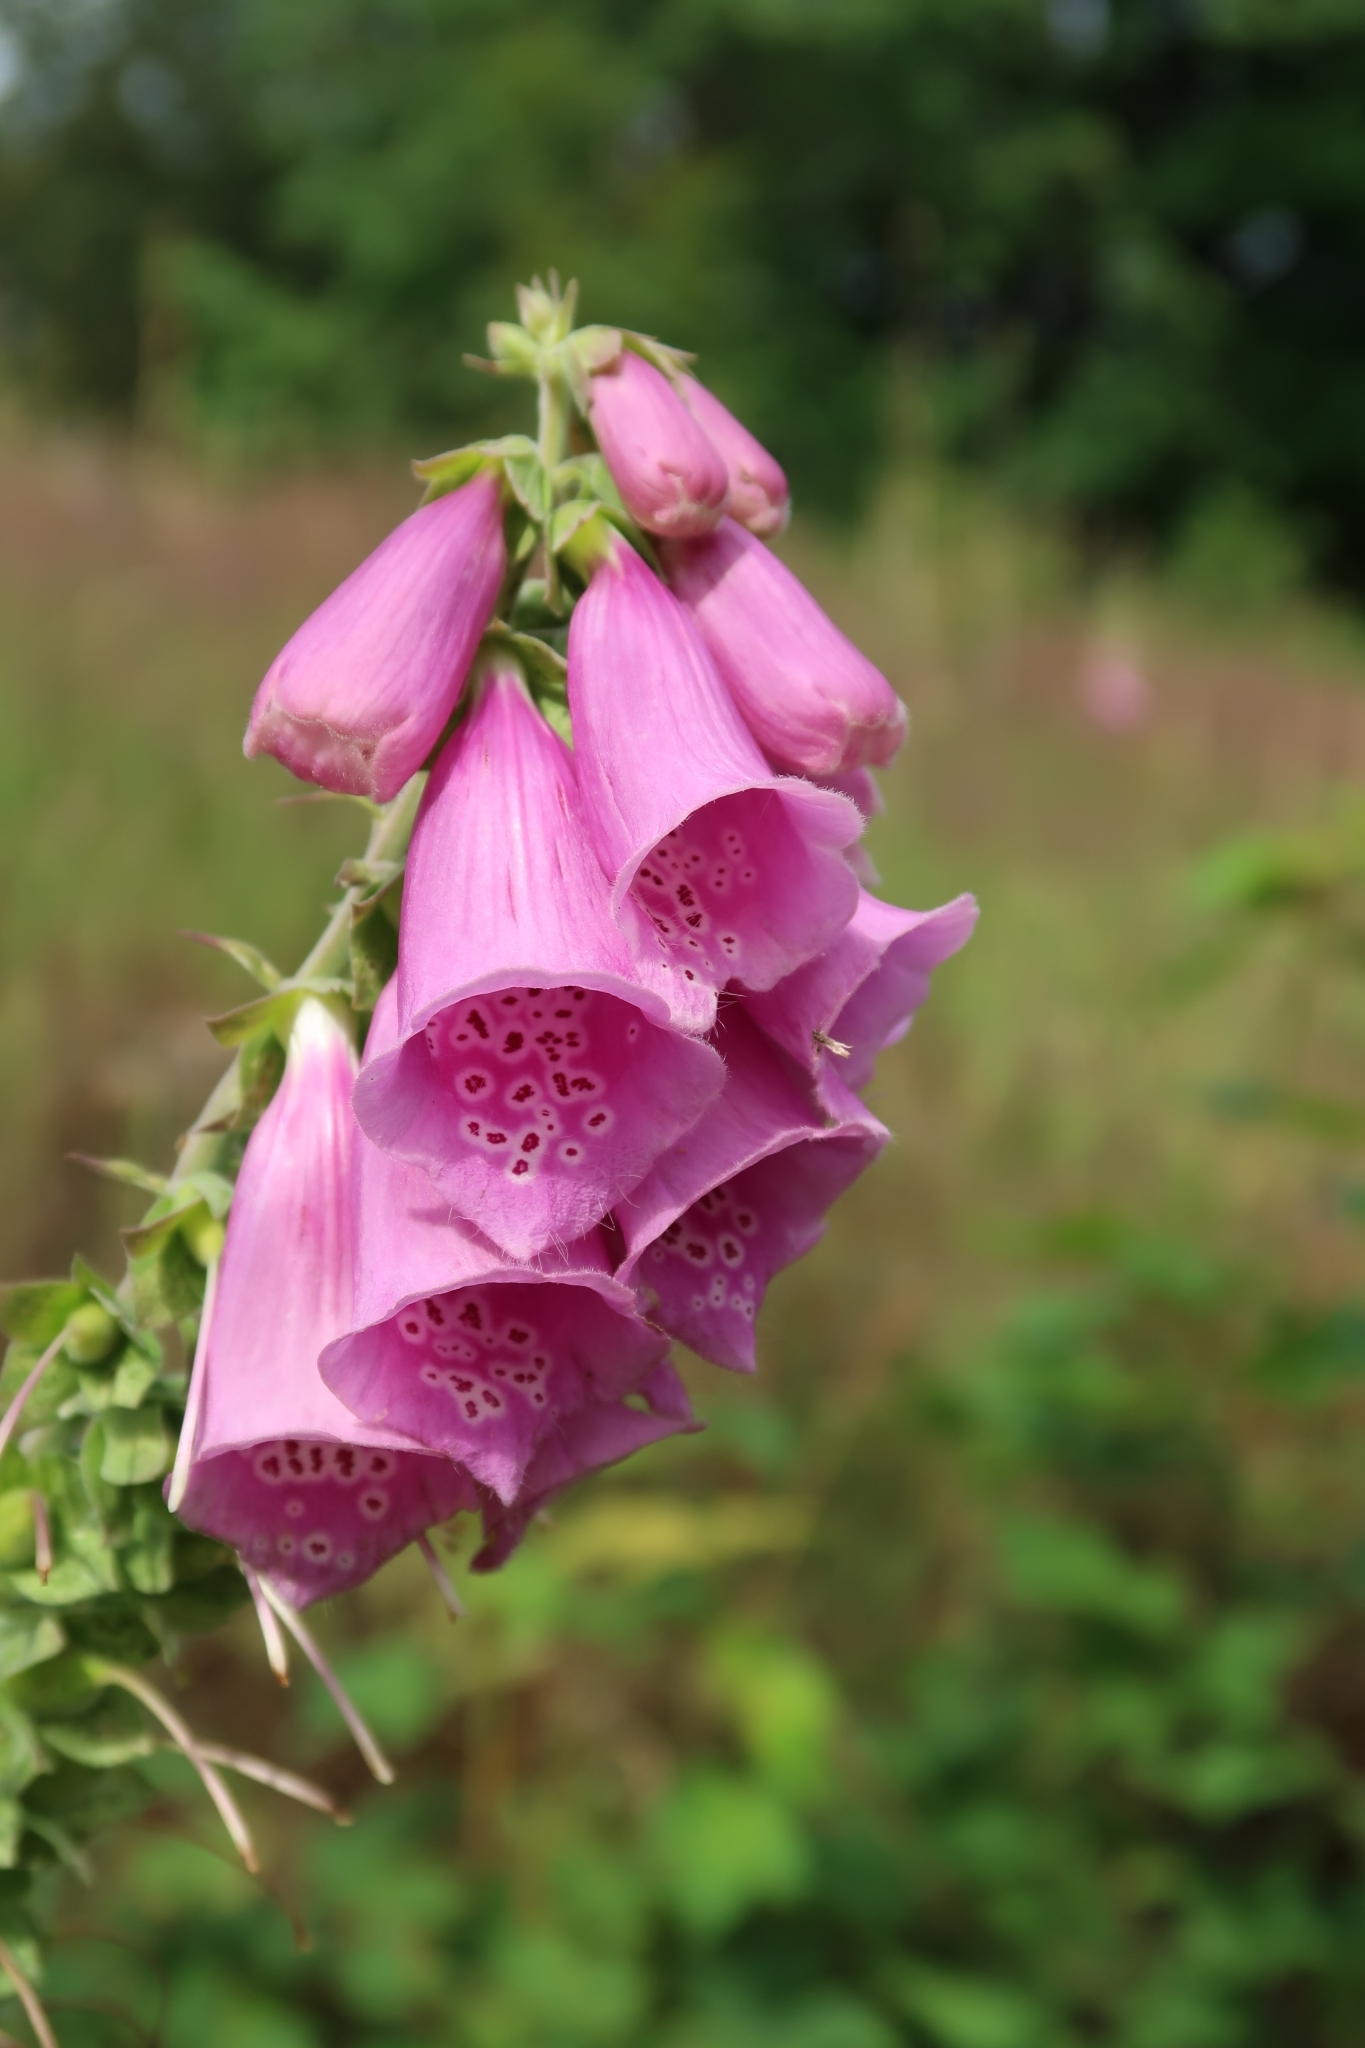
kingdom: Plantae
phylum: Tracheophyta
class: Magnoliopsida
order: Lamiales
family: Plantaginaceae
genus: Digitalis
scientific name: Digitalis purpurea
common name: Foxglove
